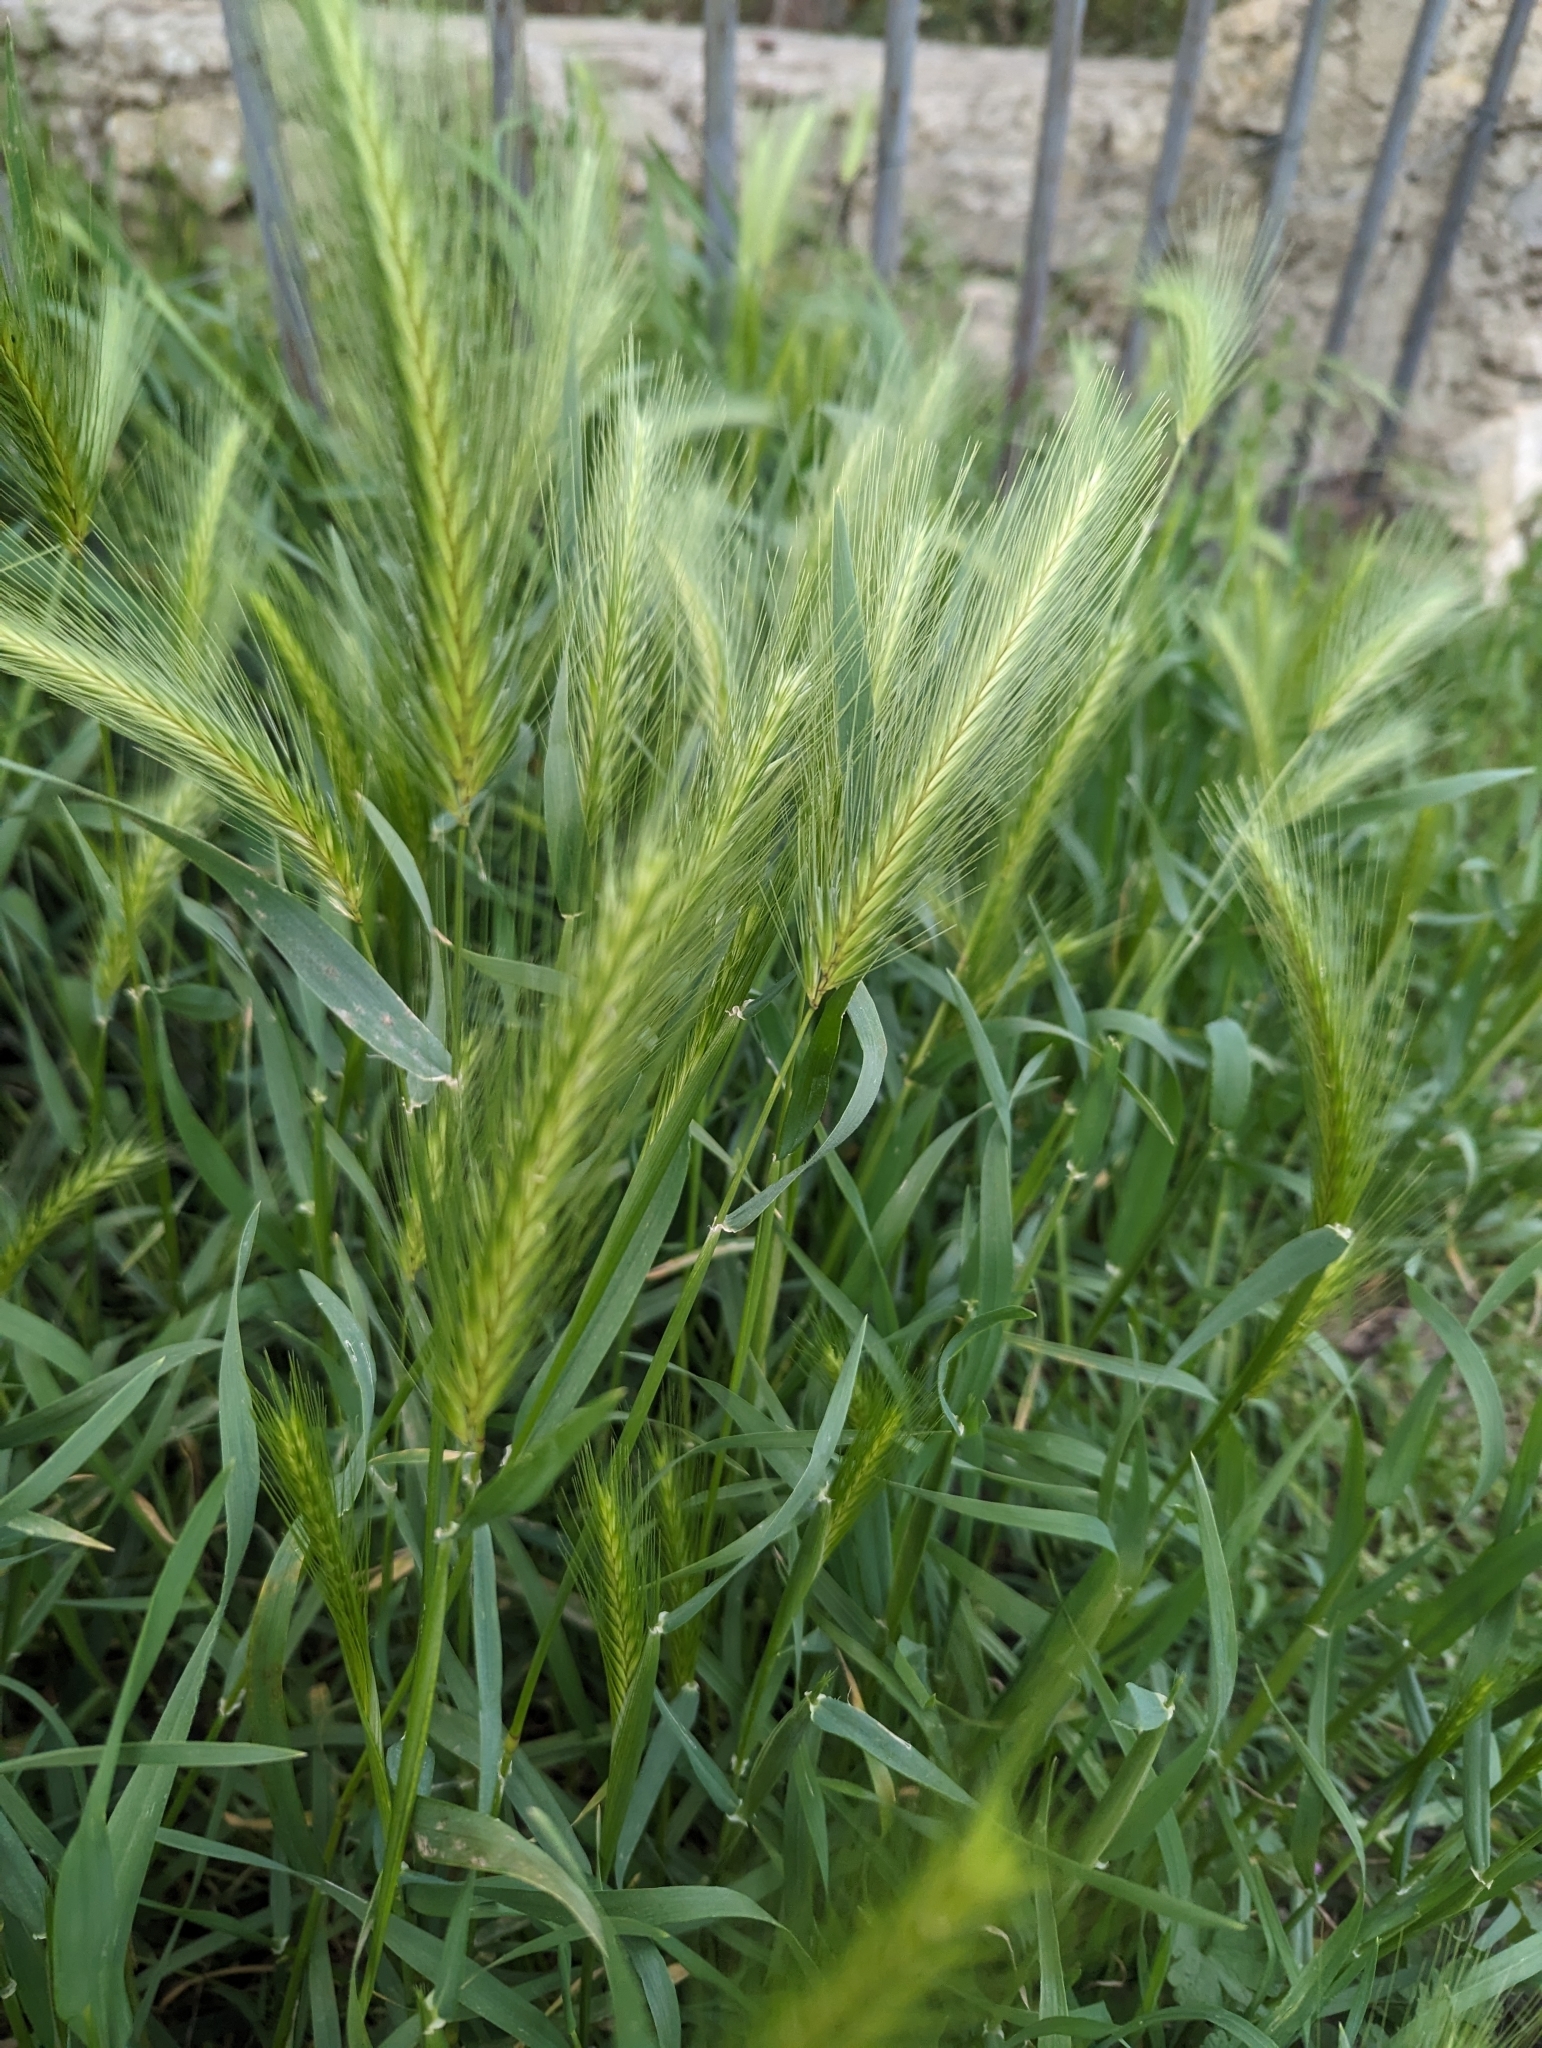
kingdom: Plantae
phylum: Tracheophyta
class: Liliopsida
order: Poales
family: Poaceae
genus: Hordeum
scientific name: Hordeum murinum
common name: Wall barley
